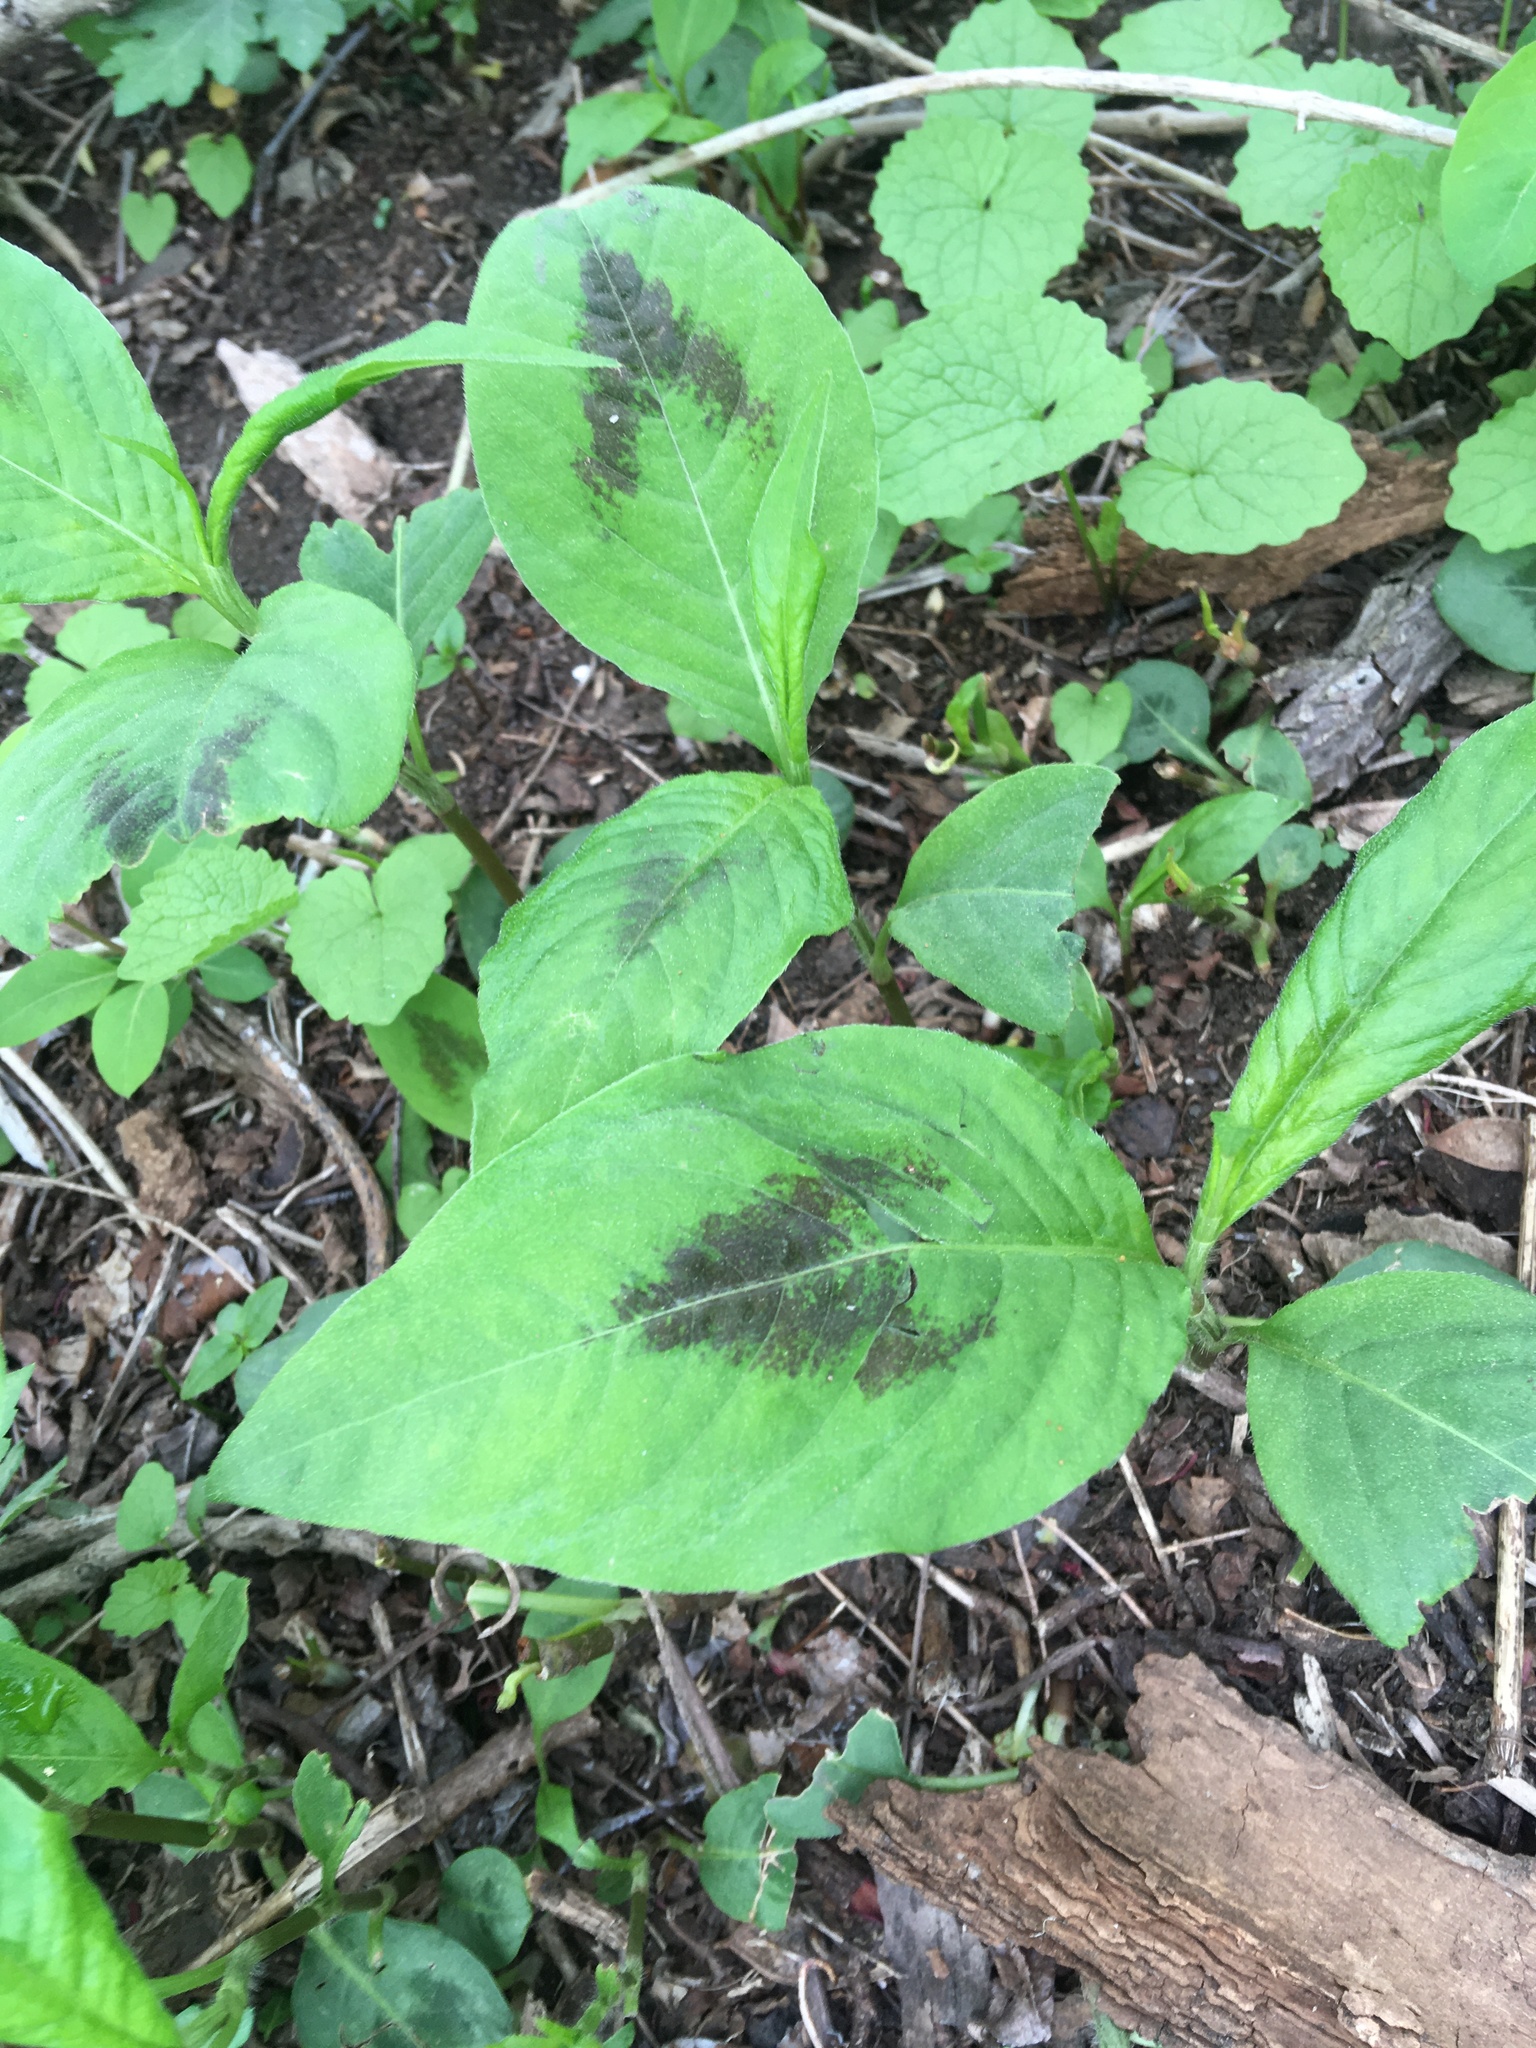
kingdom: Plantae
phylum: Tracheophyta
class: Magnoliopsida
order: Caryophyllales
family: Polygonaceae
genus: Persicaria
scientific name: Persicaria virginiana
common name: Jumpseed
